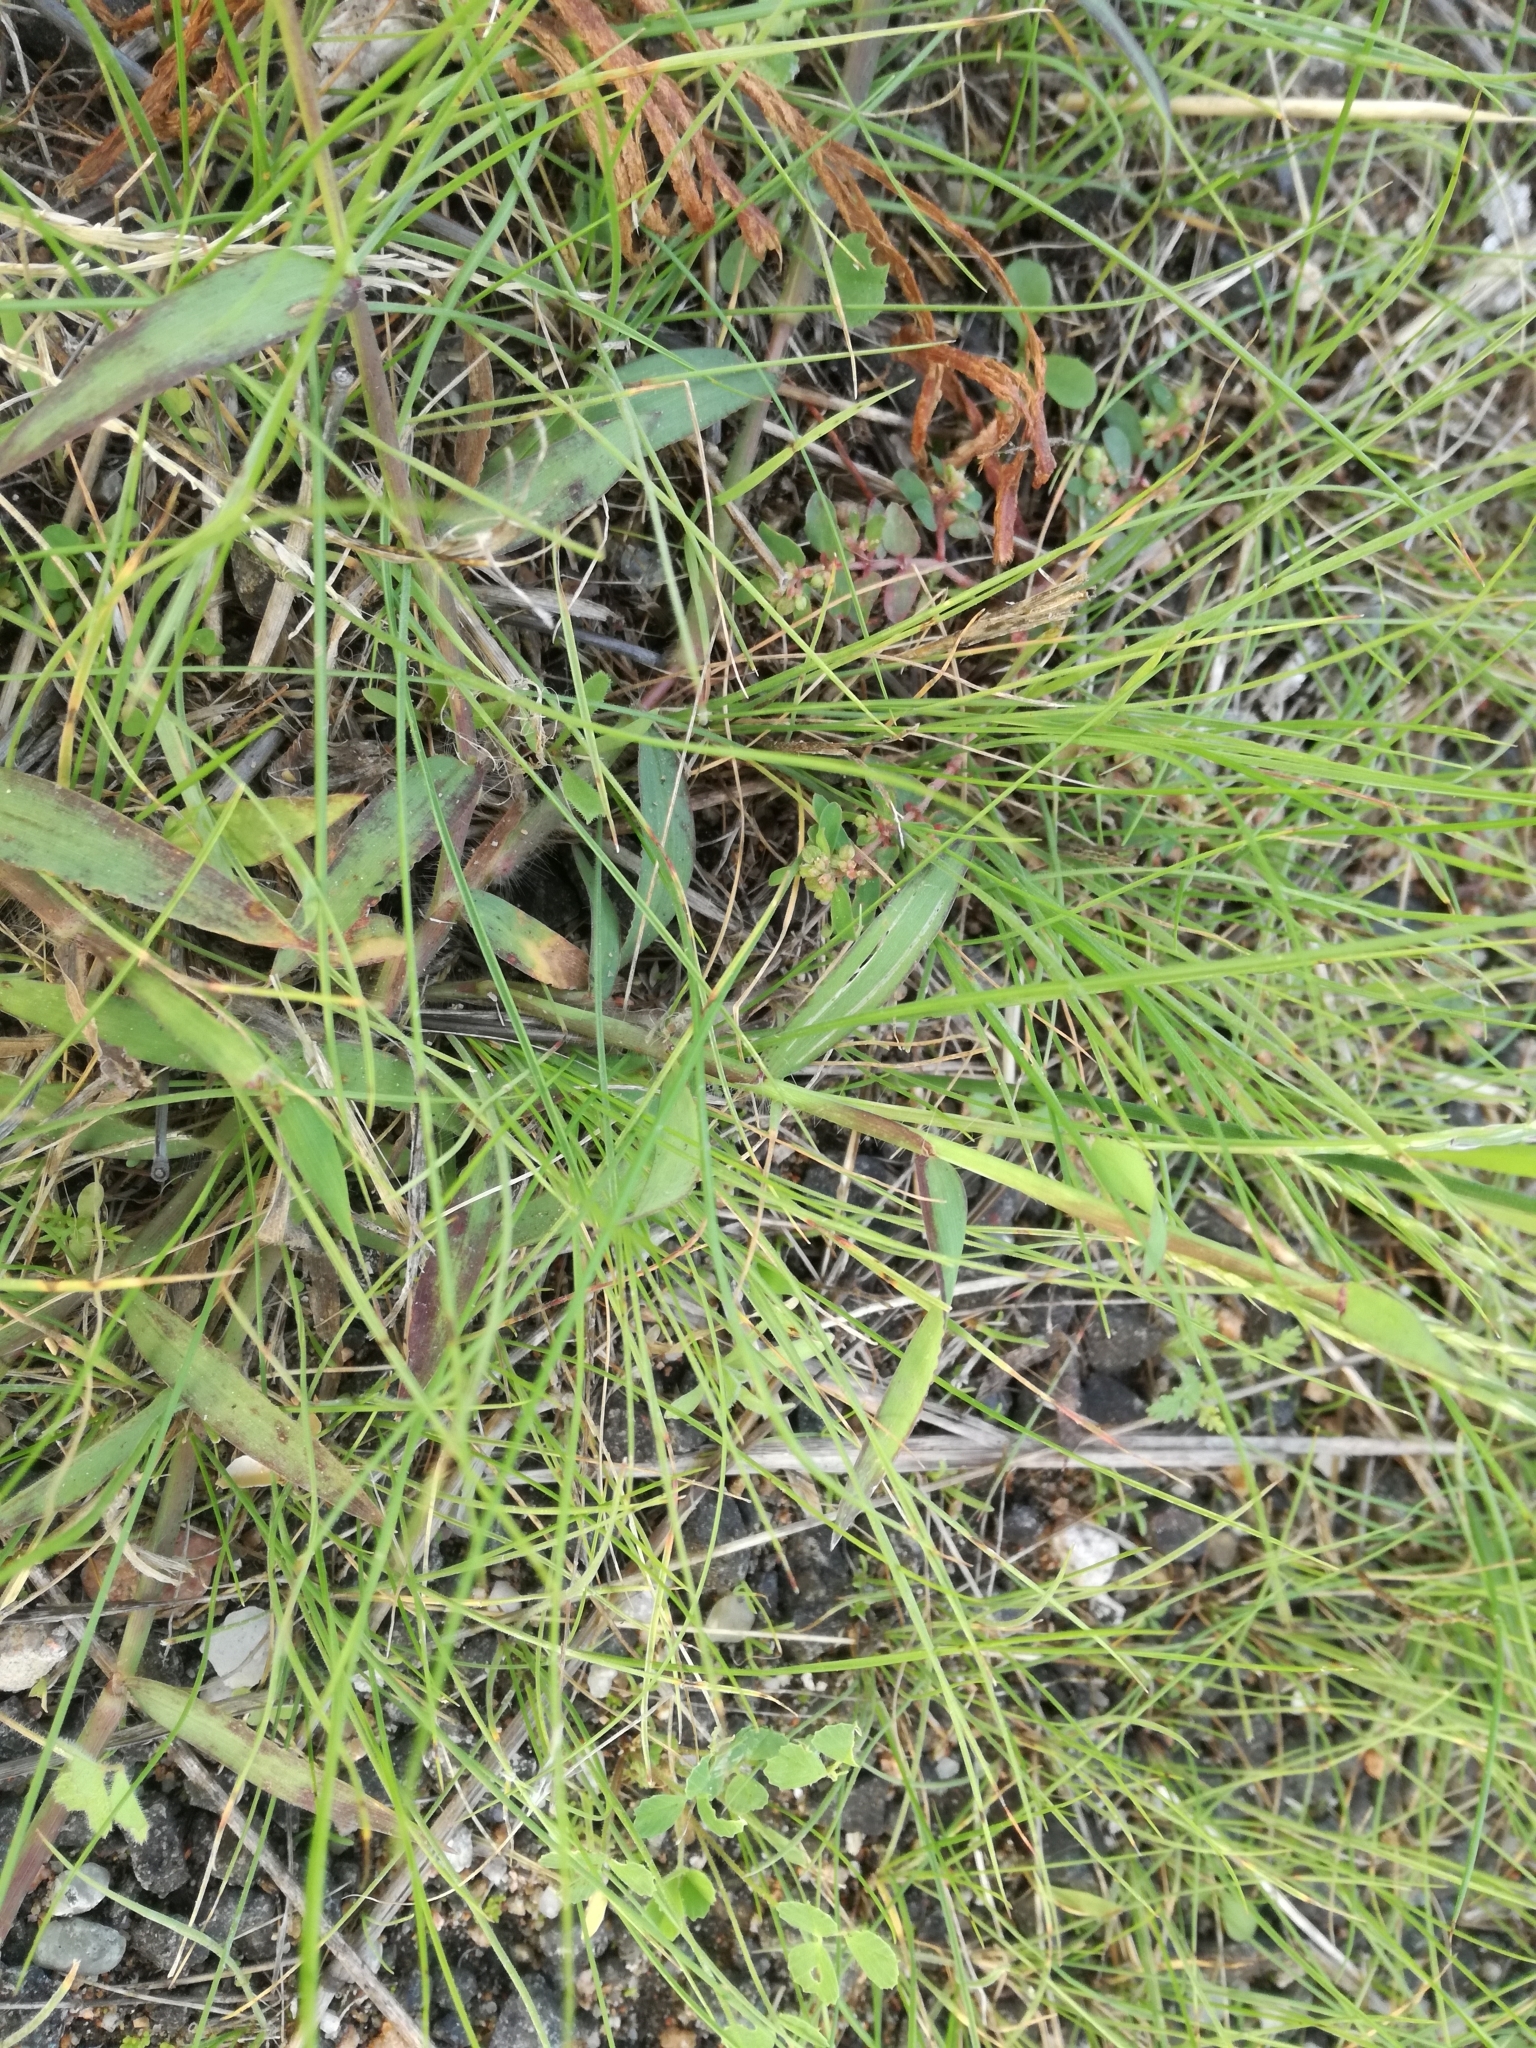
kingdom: Plantae
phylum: Tracheophyta
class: Liliopsida
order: Asparagales
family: Amaryllidaceae
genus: Narcissus
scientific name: Narcissus deficiens
